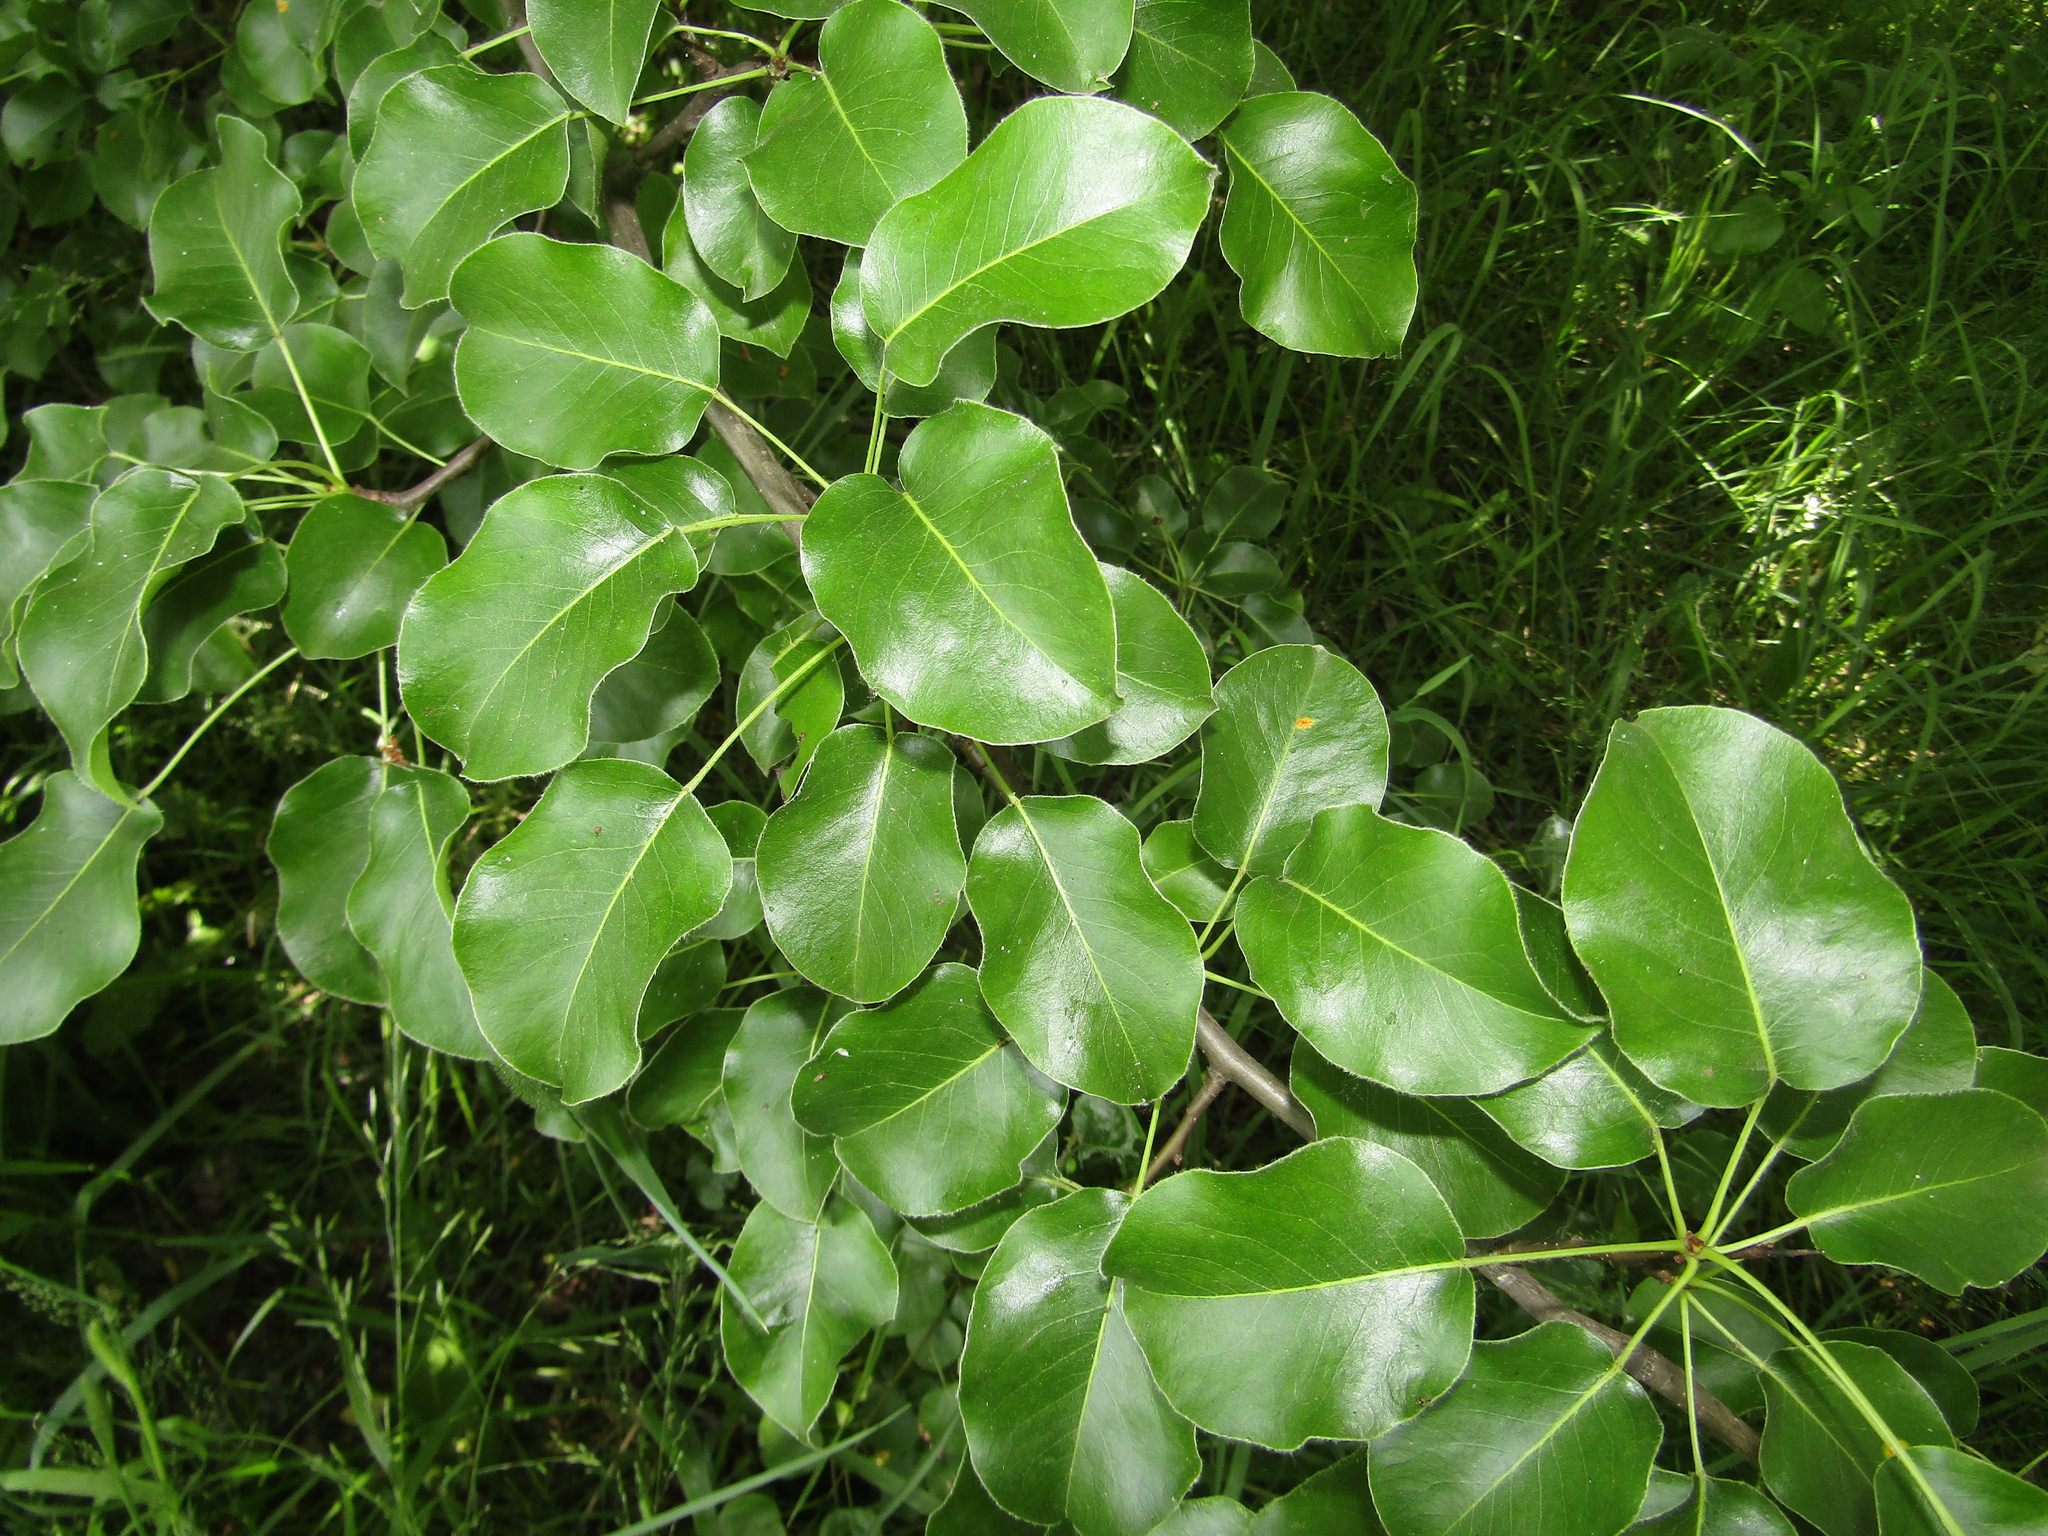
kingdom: Plantae
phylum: Tracheophyta
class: Magnoliopsida
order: Rosales
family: Rosaceae
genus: Pyrus
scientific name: Pyrus communis
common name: Pear
